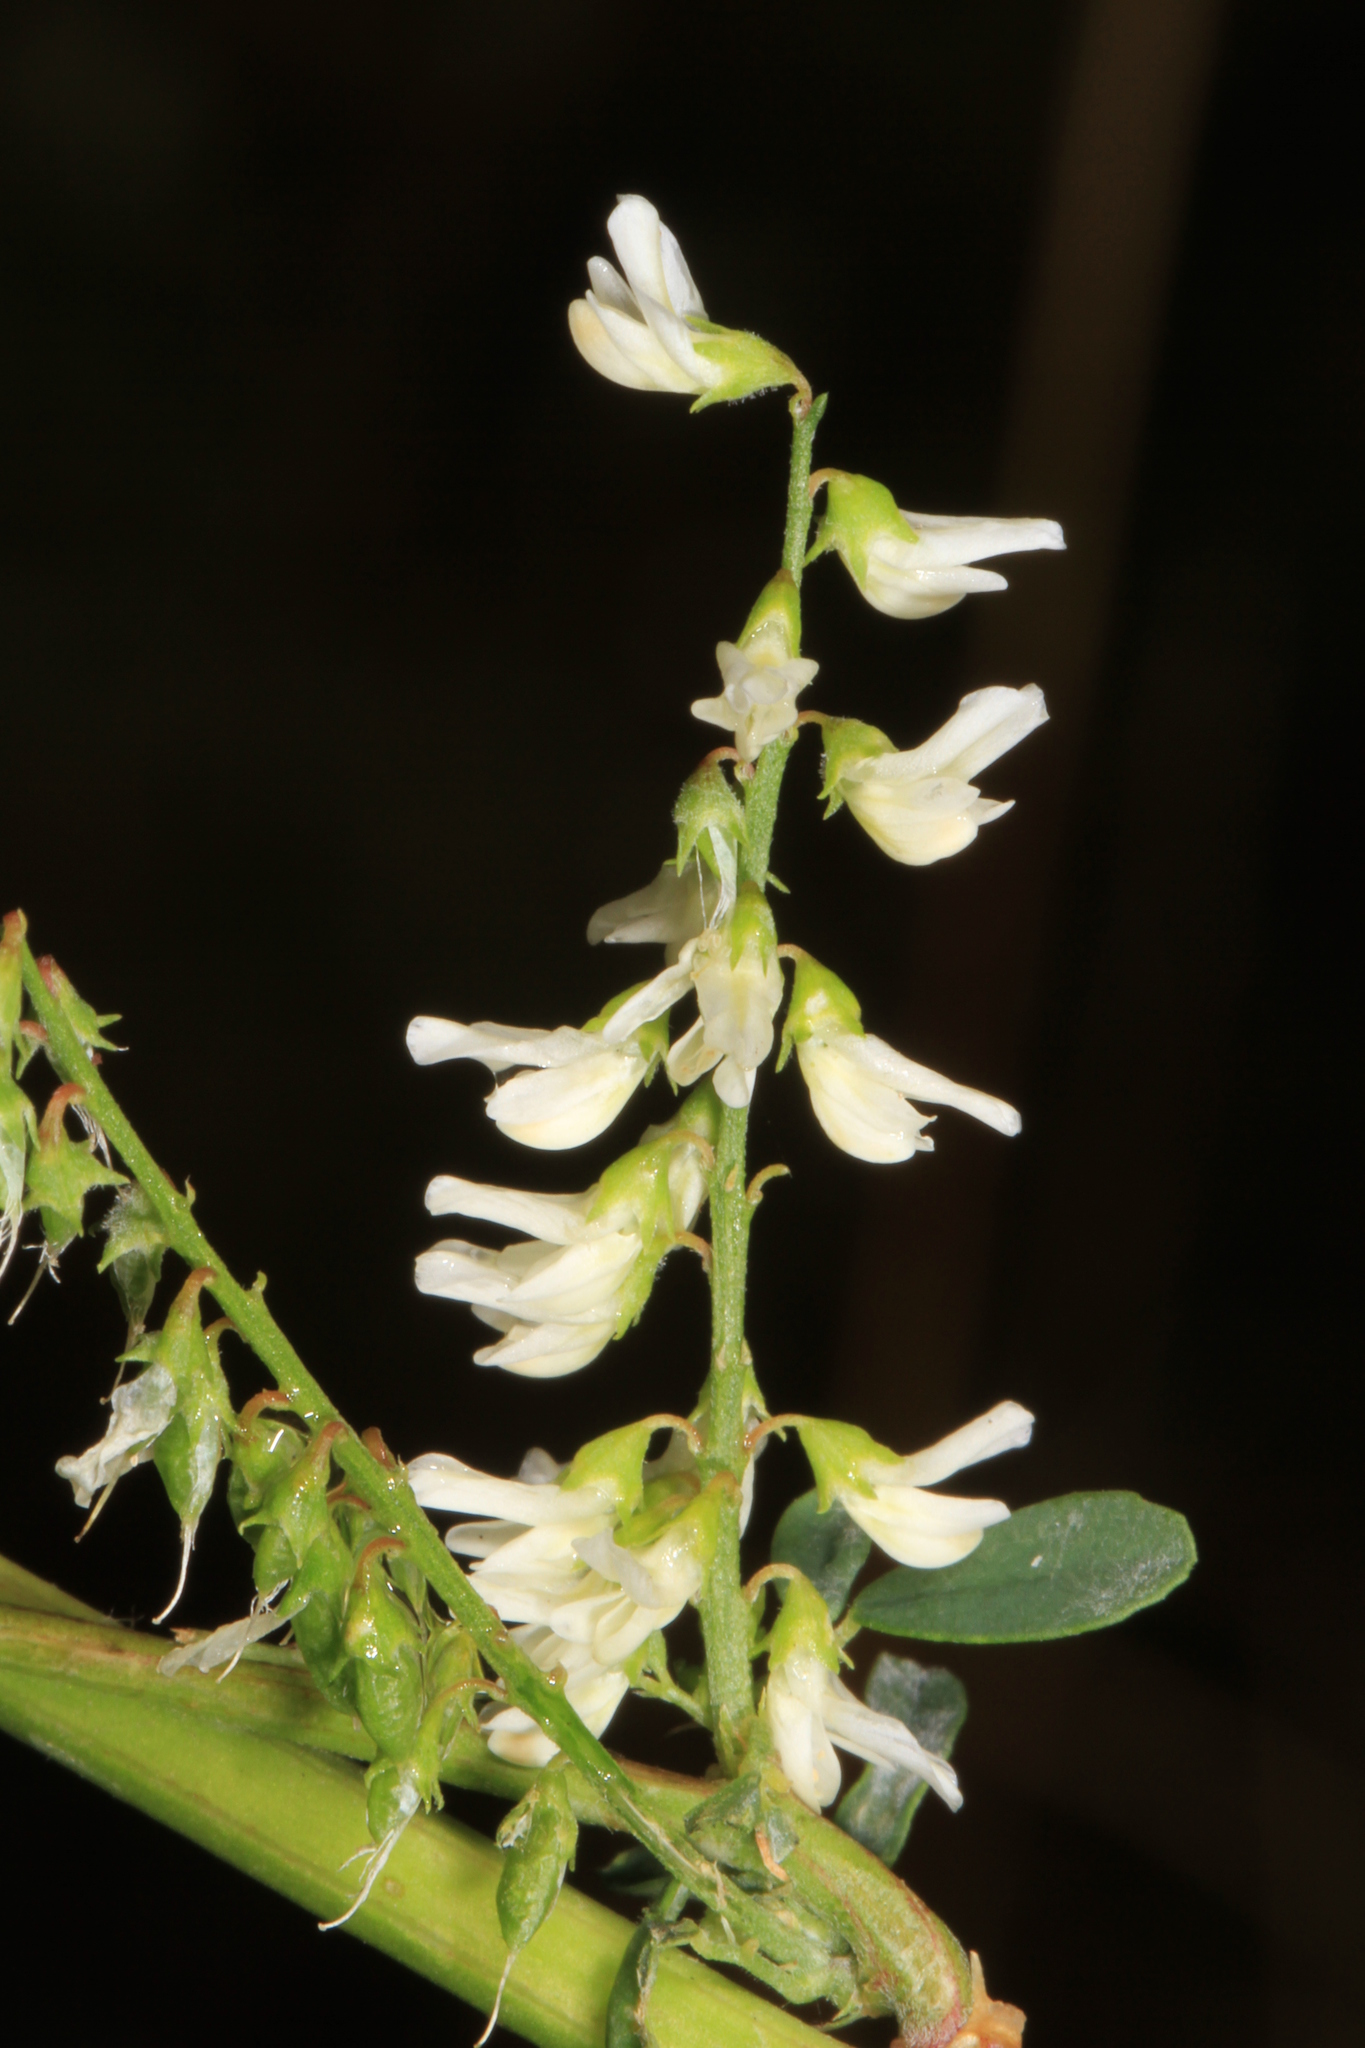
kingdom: Plantae
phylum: Tracheophyta
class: Magnoliopsida
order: Fabales
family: Fabaceae
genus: Melilotus
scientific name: Melilotus albus
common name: White melilot
